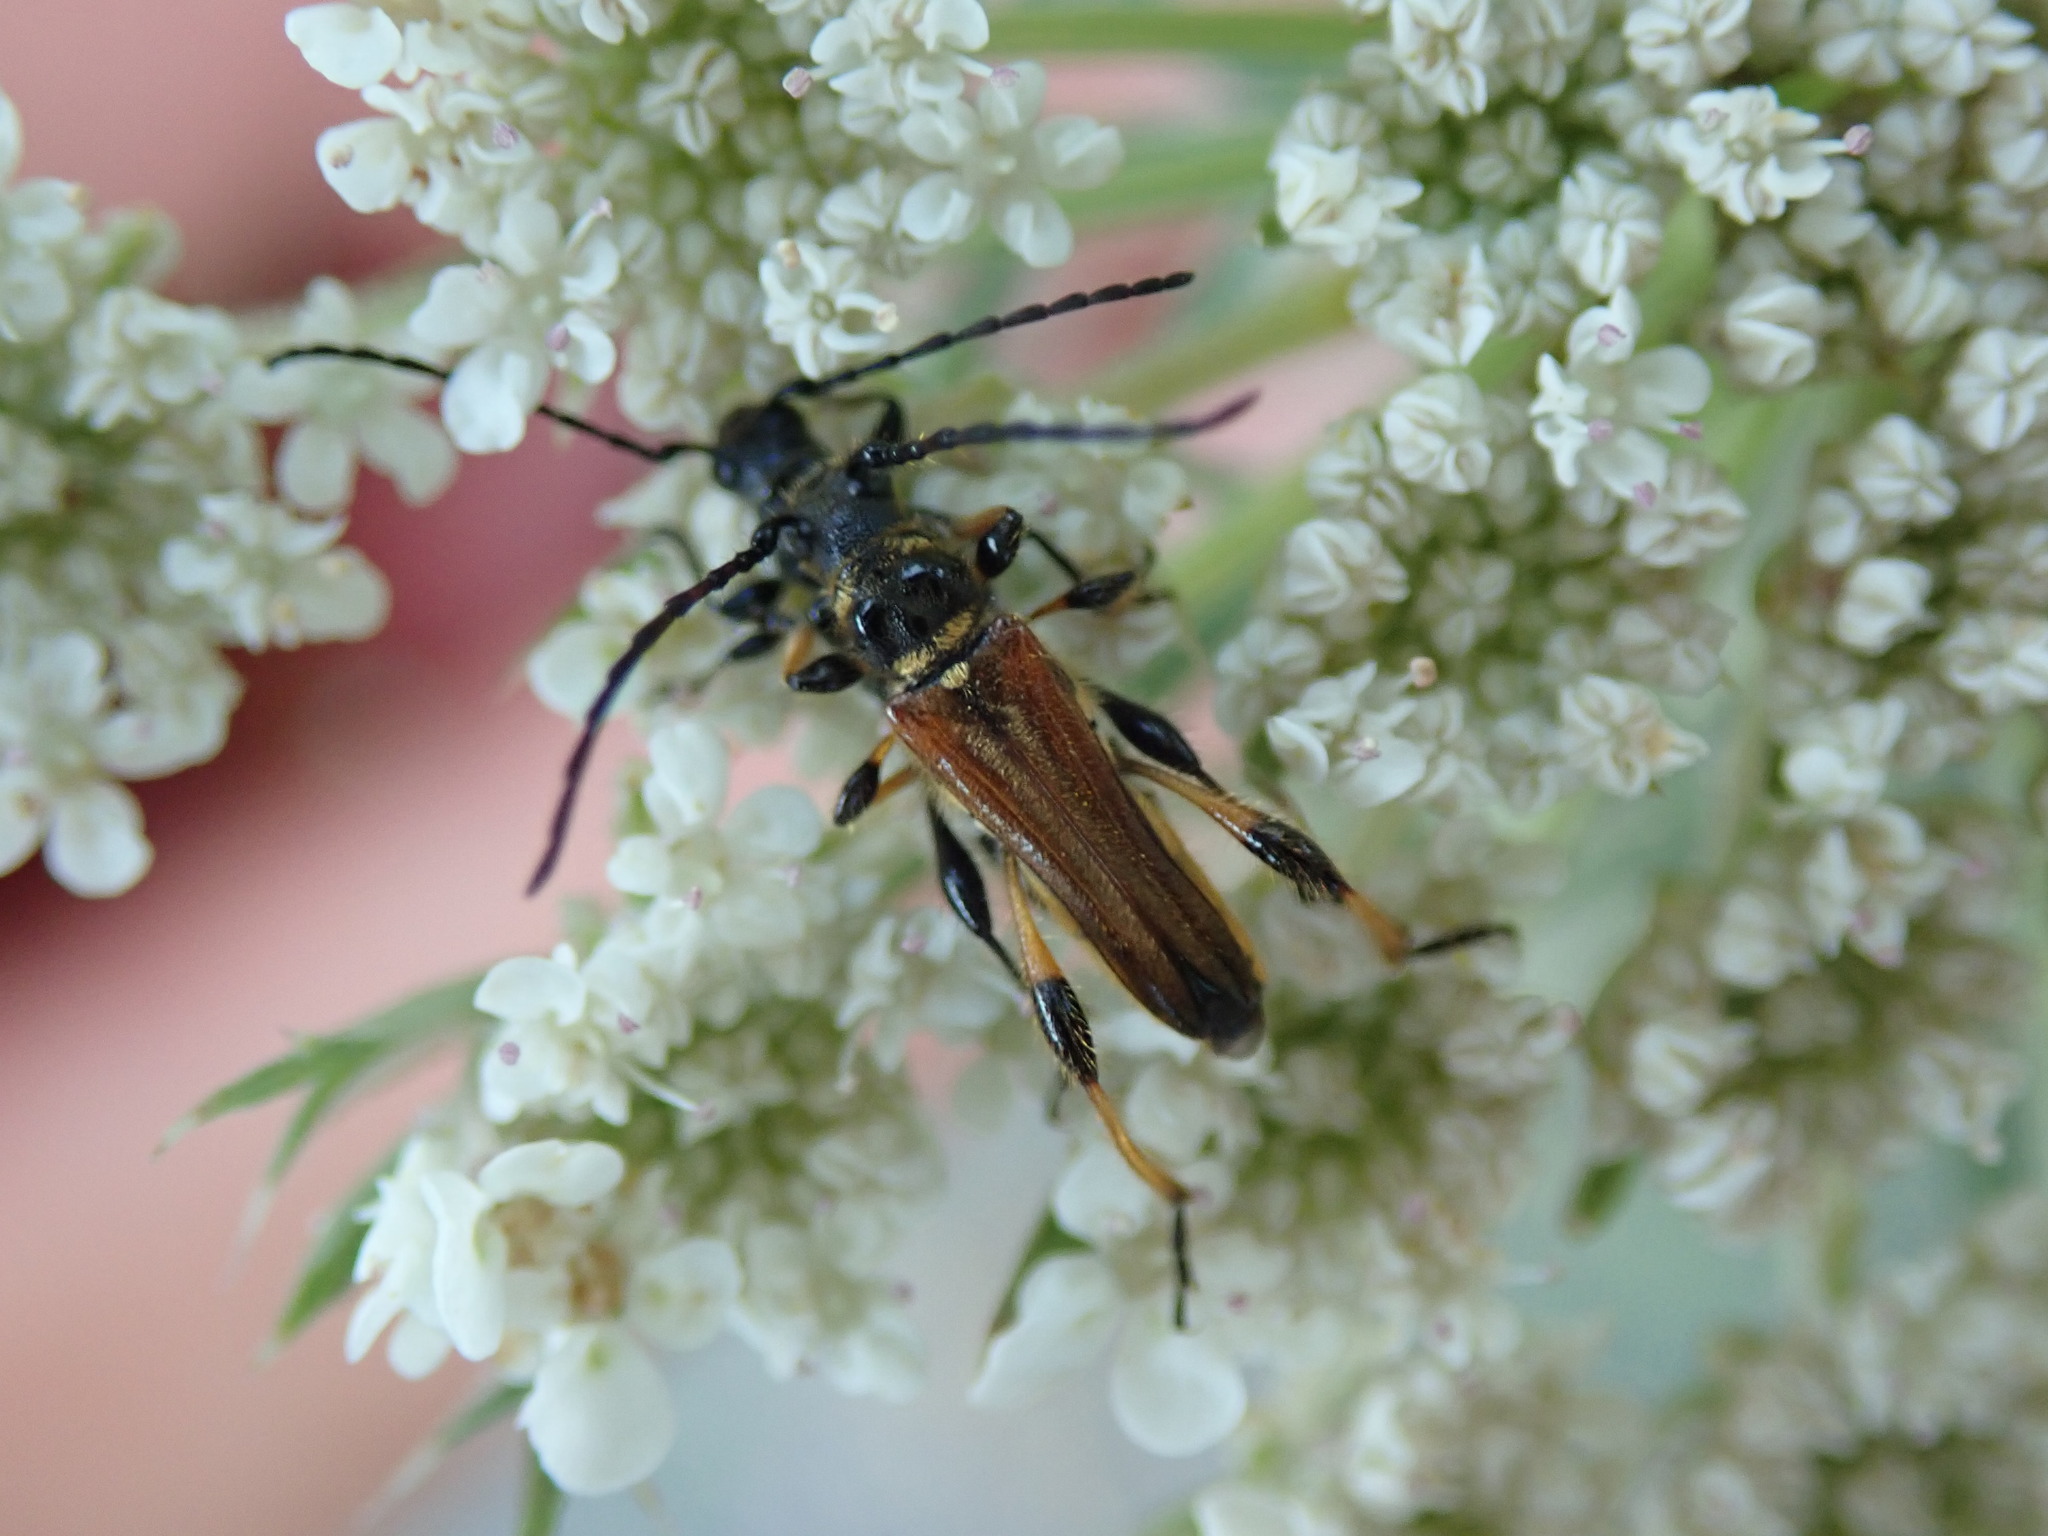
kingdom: Animalia
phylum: Arthropoda
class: Insecta
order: Coleoptera
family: Cerambycidae
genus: Stenopterus
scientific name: Stenopterus ater
